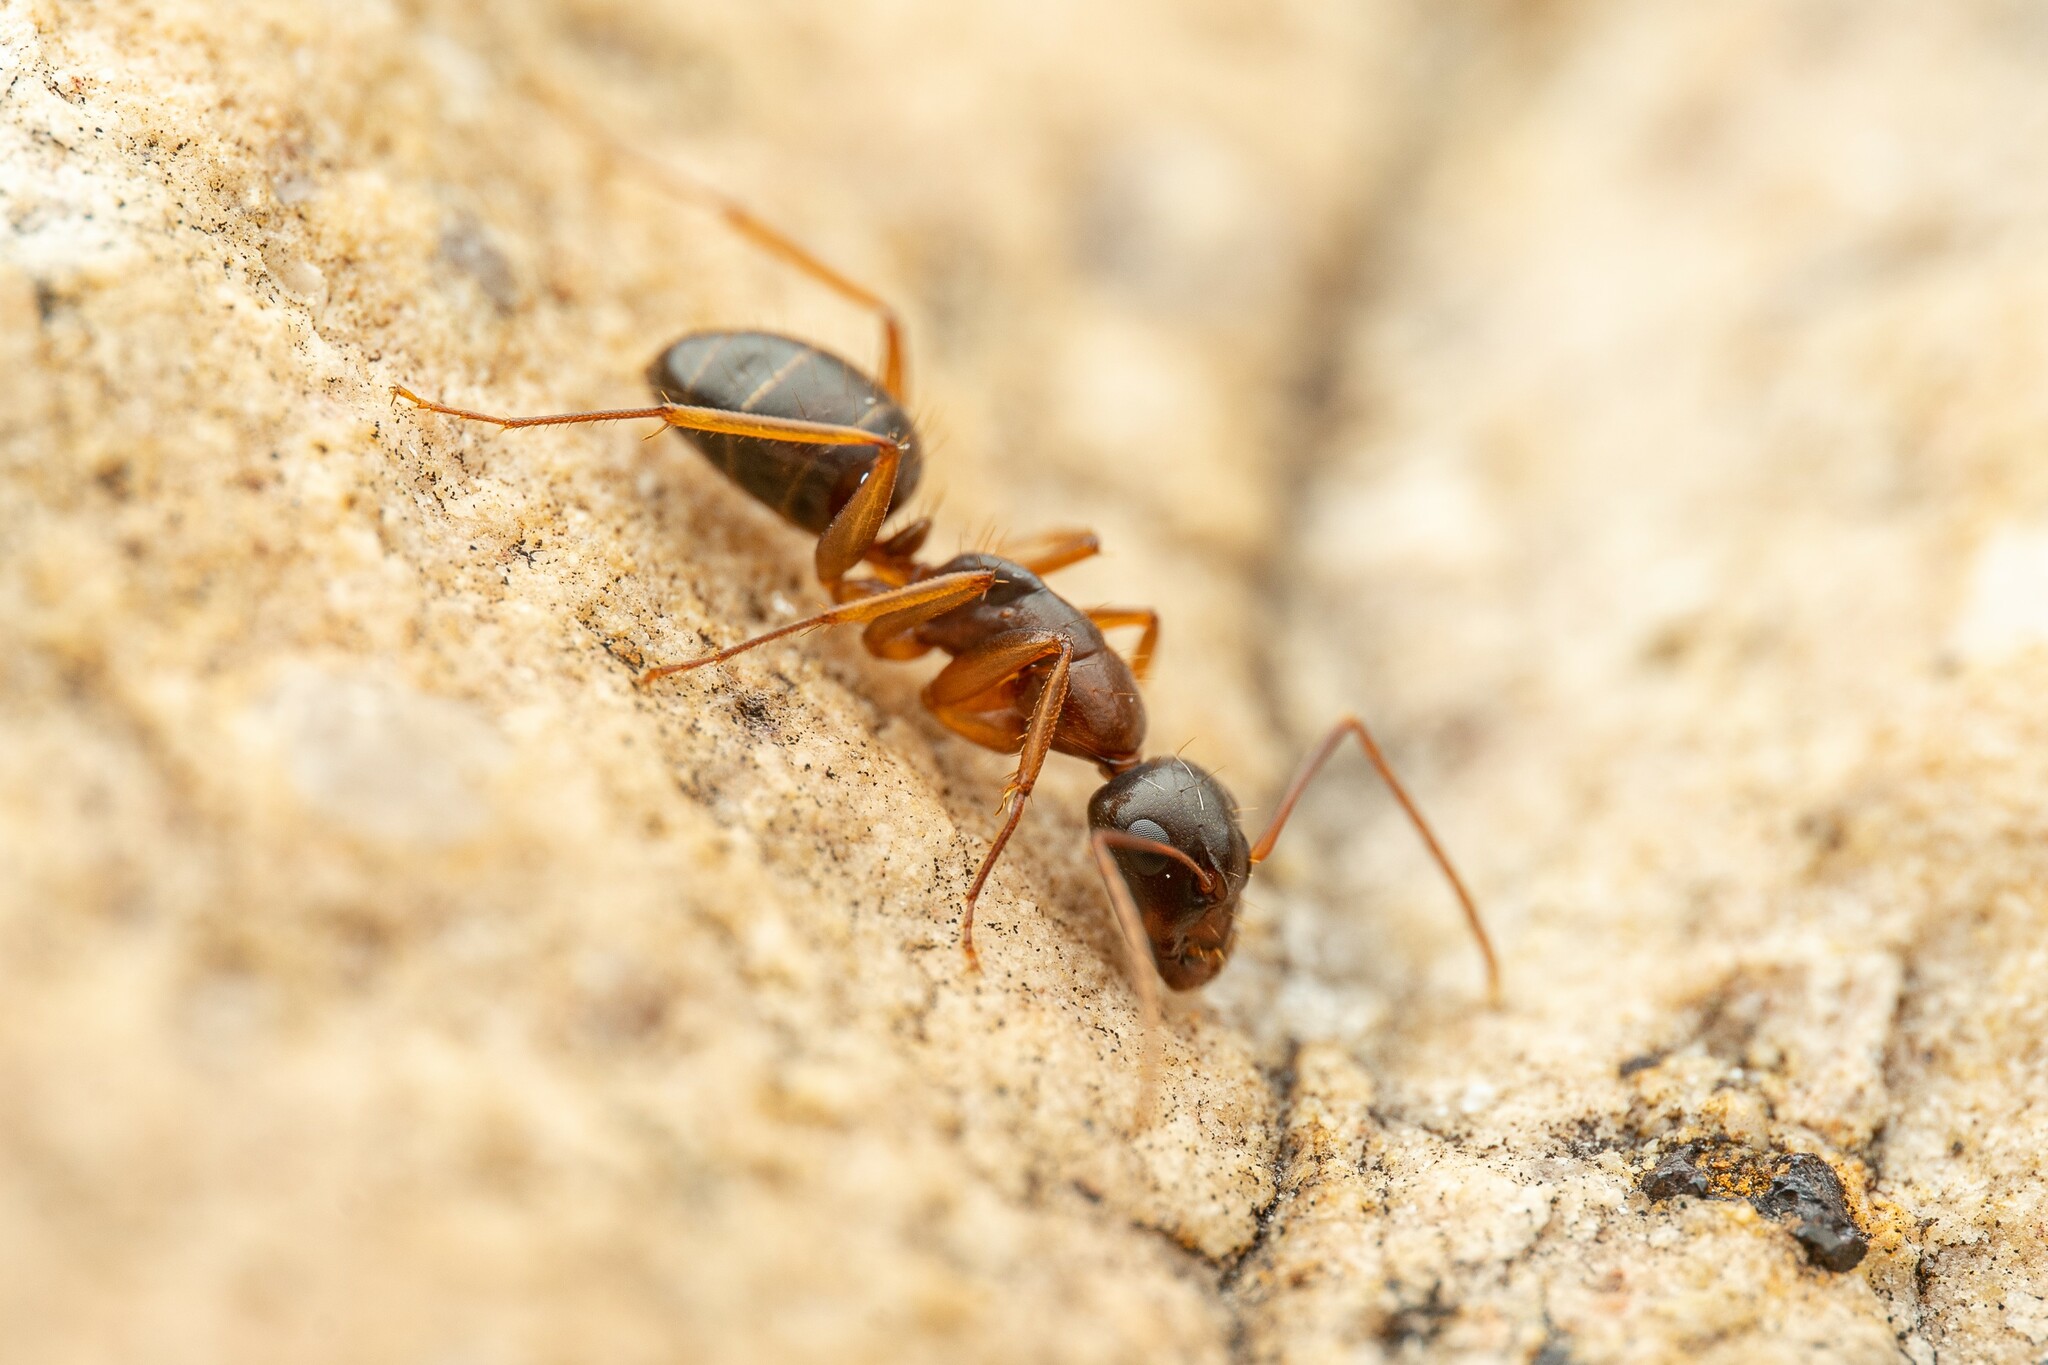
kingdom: Animalia
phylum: Arthropoda
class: Insecta
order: Hymenoptera
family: Formicidae
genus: Camponotus
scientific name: Camponotus sansabeanus
